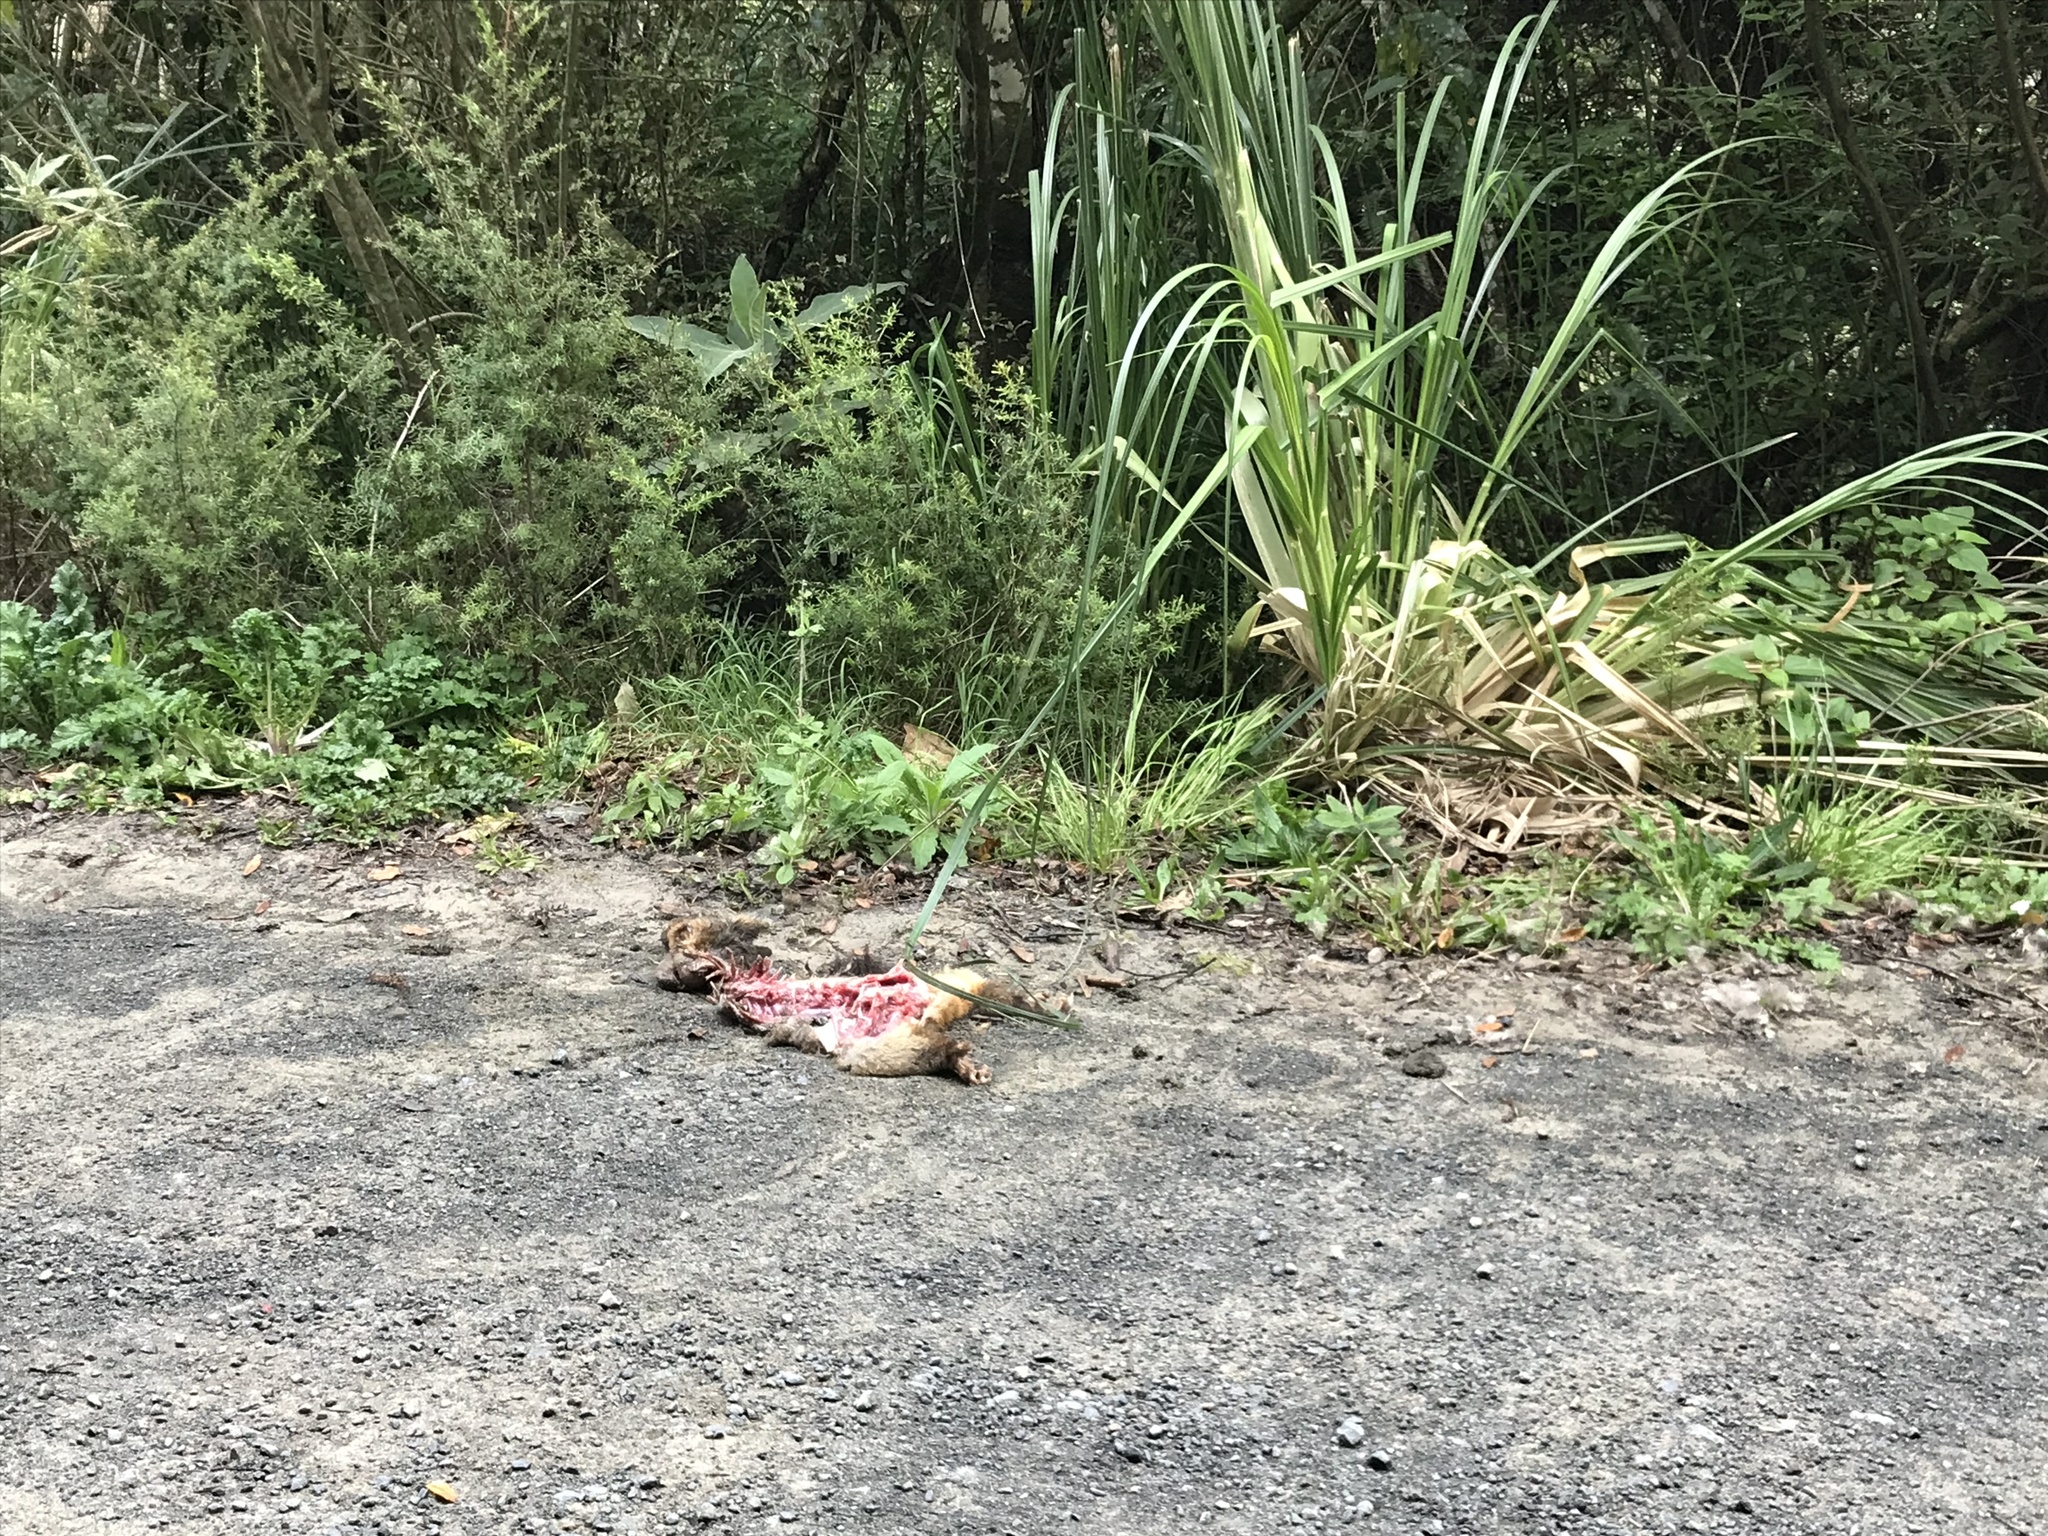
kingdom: Animalia
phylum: Chordata
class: Mammalia
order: Diprotodontia
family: Phalangeridae
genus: Trichosurus
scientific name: Trichosurus vulpecula
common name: Common brushtail
